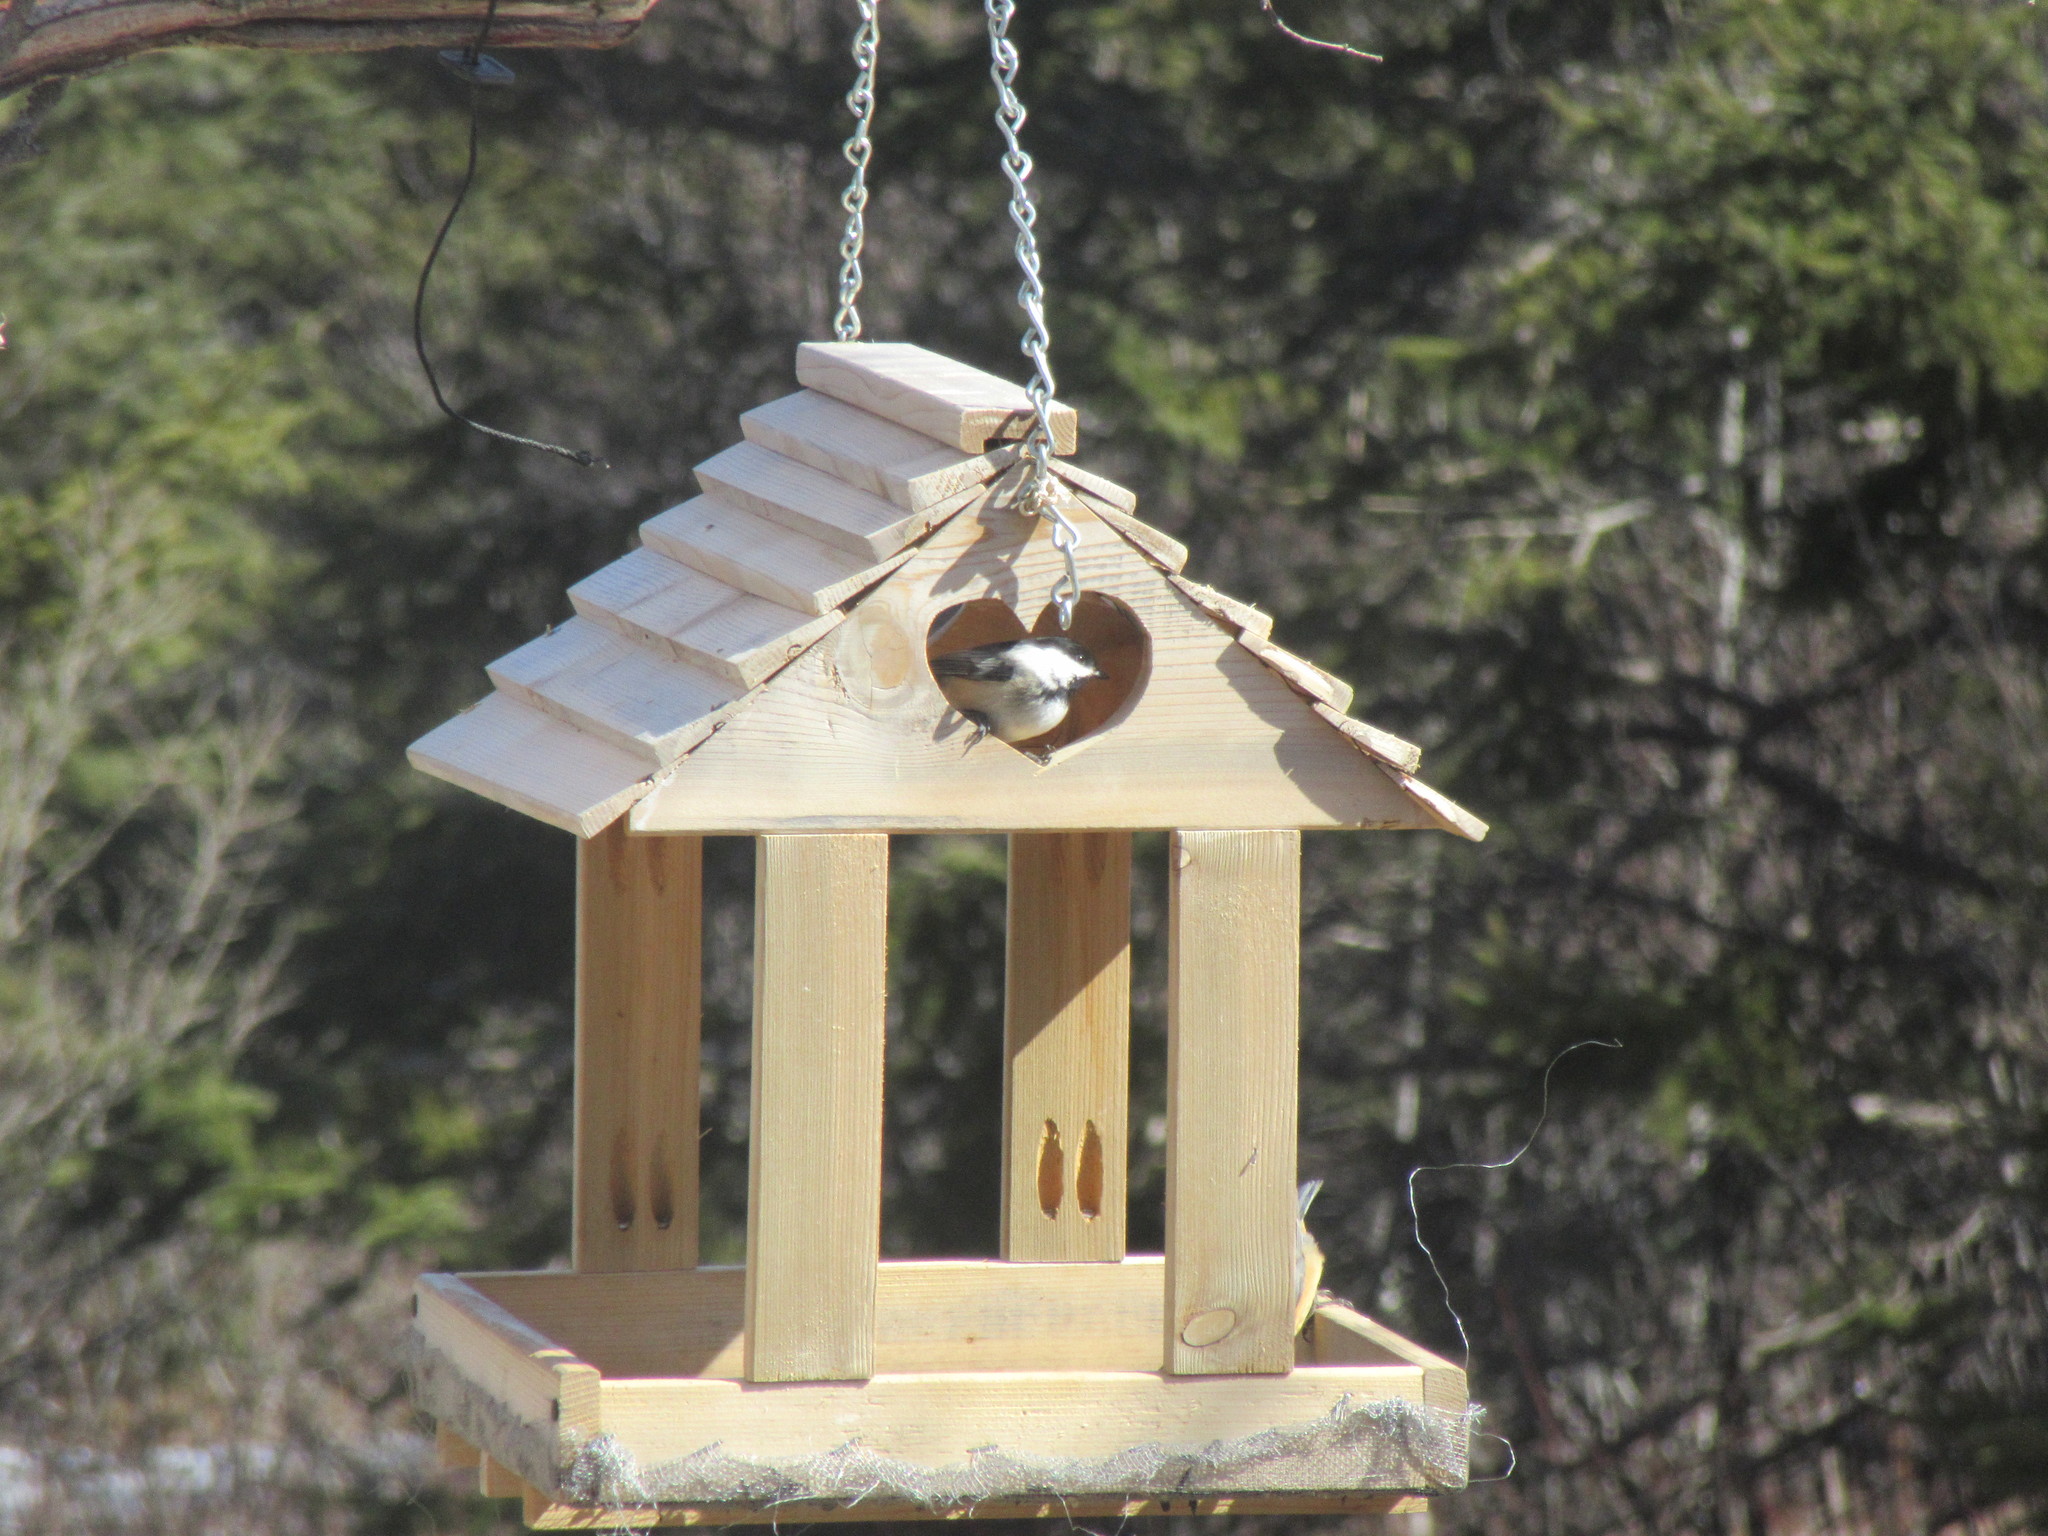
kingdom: Animalia
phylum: Chordata
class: Aves
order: Passeriformes
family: Paridae
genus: Poecile
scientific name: Poecile atricapillus
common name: Black-capped chickadee
